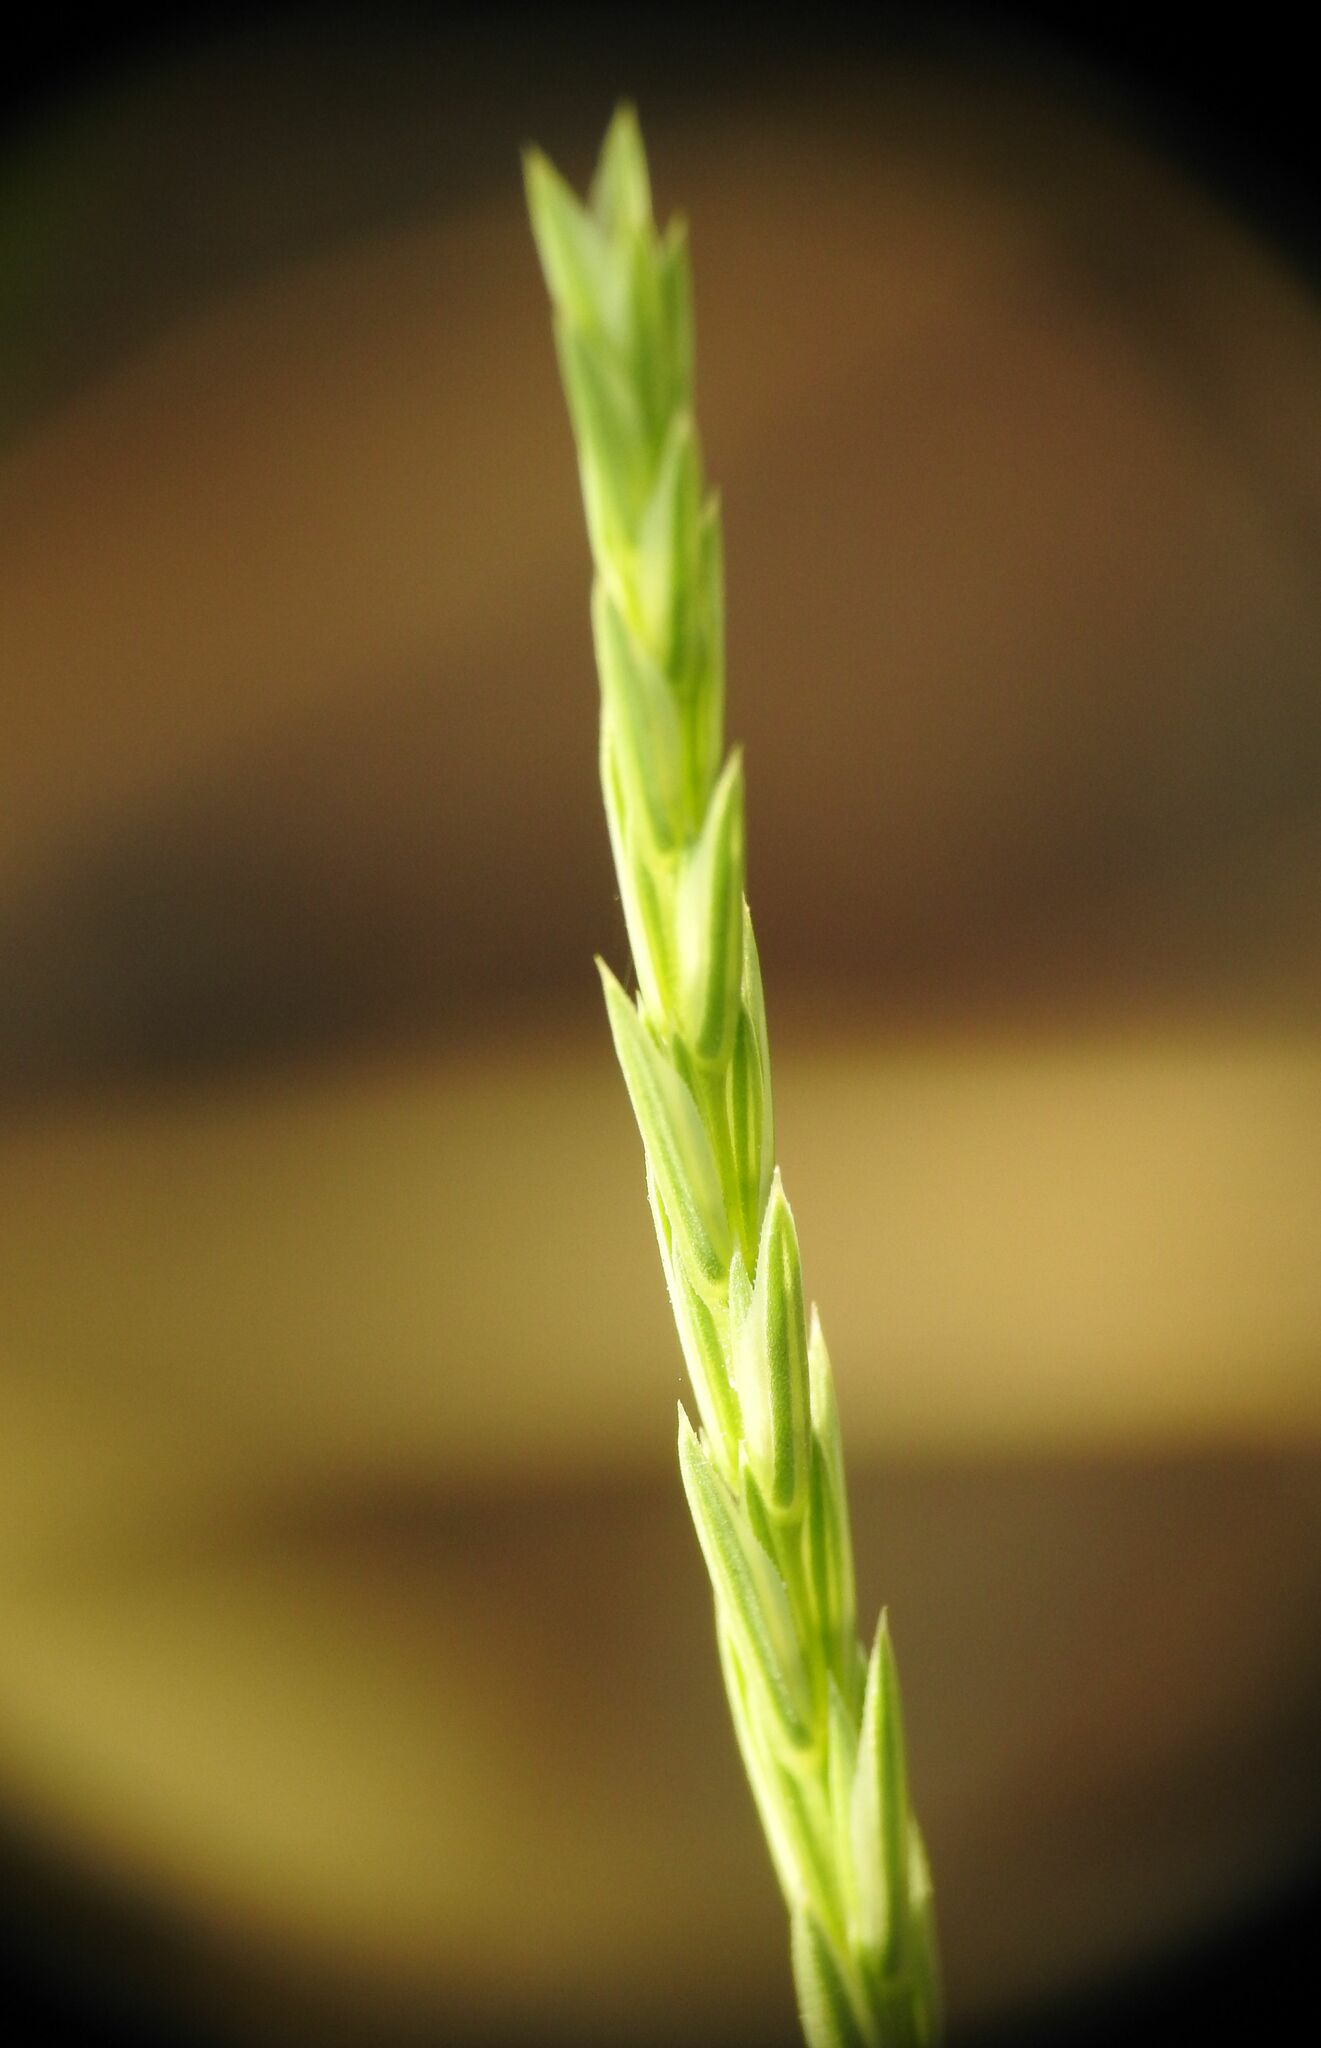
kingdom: Plantae
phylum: Tracheophyta
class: Magnoliopsida
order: Gentianales
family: Rubiaceae
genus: Crucianella
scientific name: Crucianella angustifolia
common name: Narrowleaf crucianella
